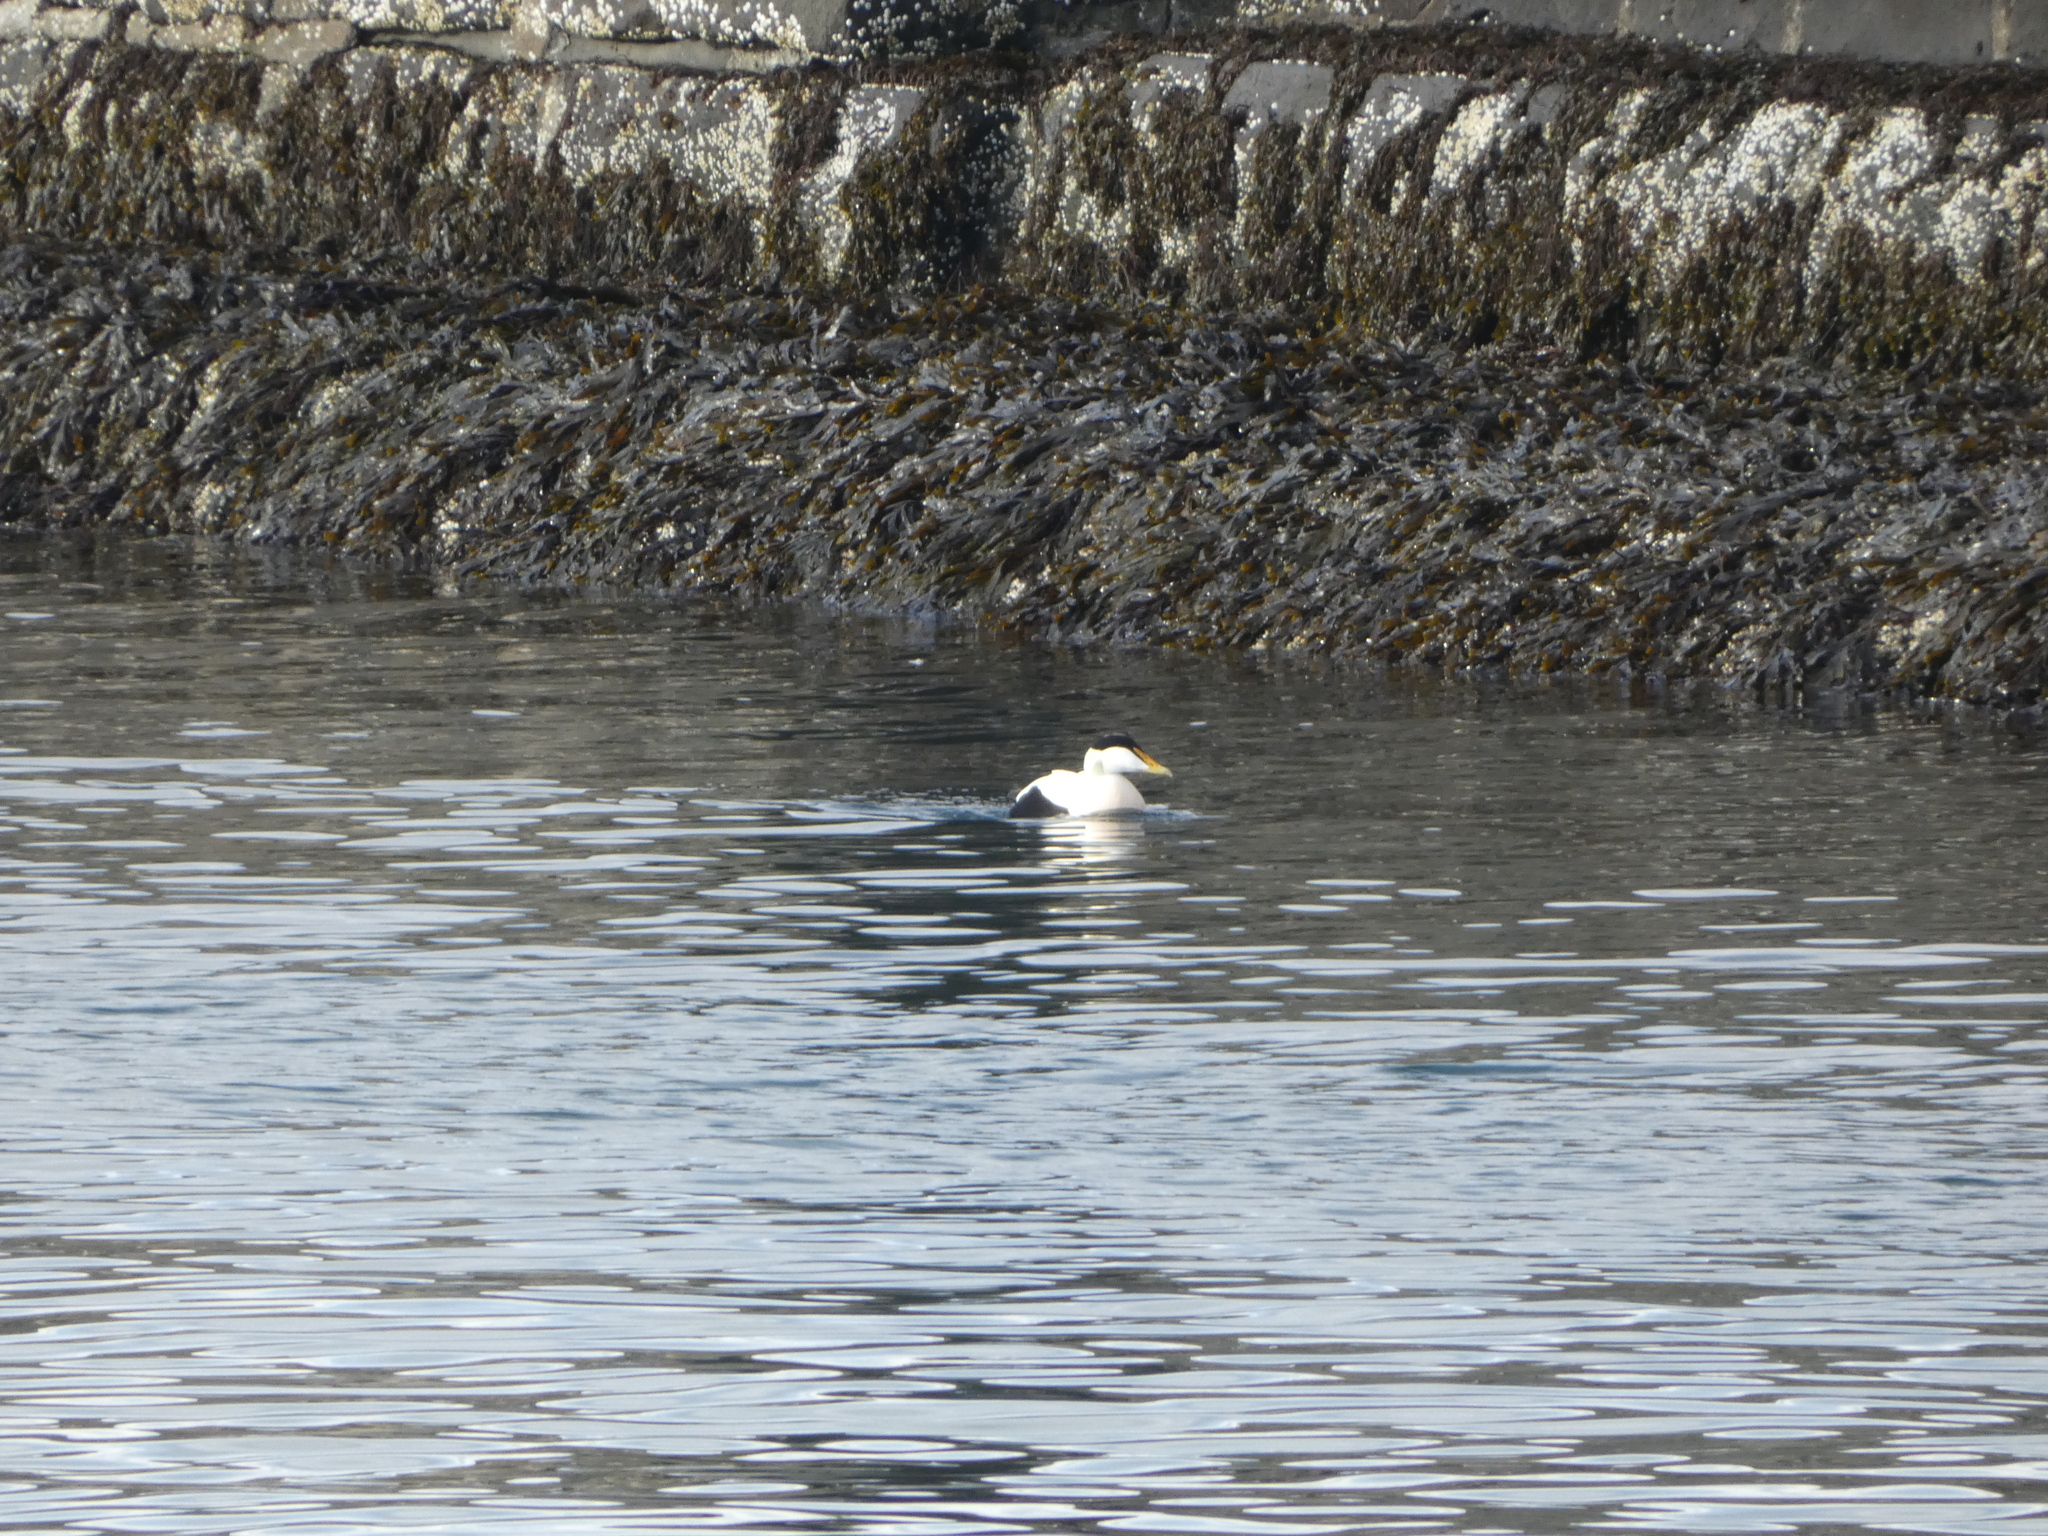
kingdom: Animalia
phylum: Chordata
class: Aves
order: Anseriformes
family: Anatidae
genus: Somateria
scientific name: Somateria mollissima
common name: Common eider
